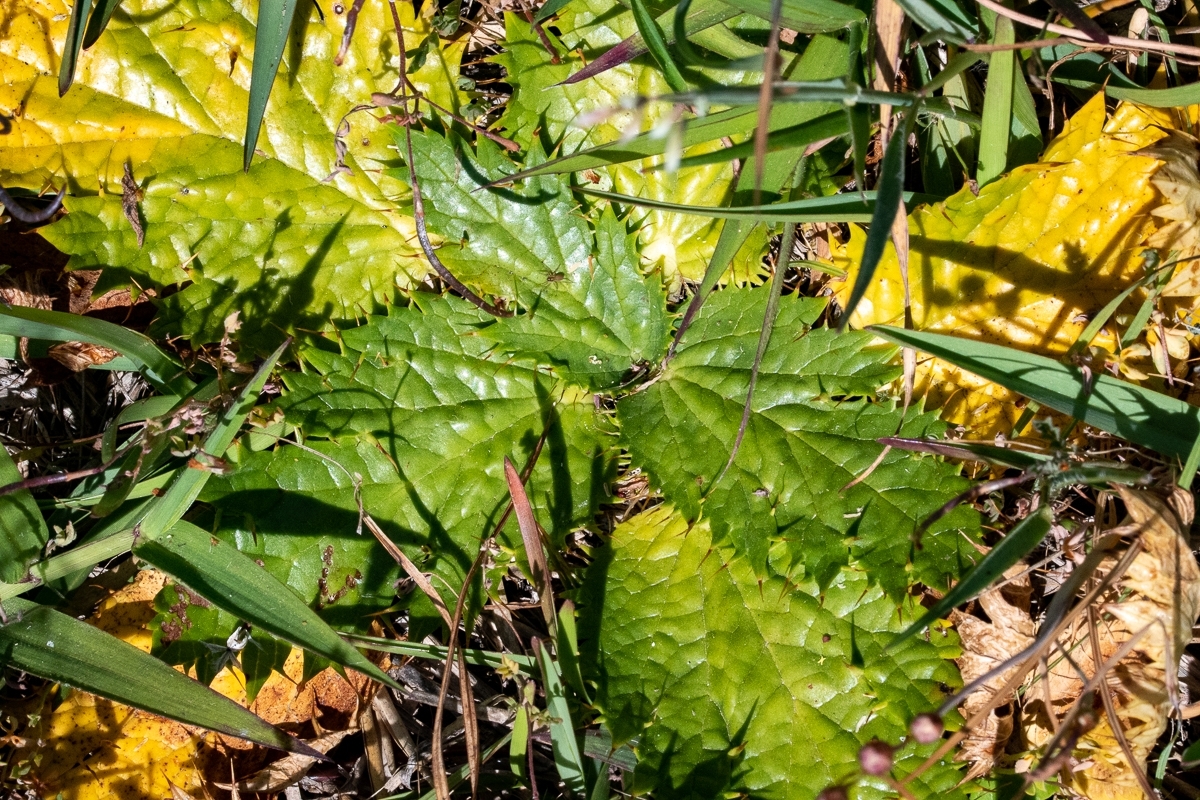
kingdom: Plantae
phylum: Tracheophyta
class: Magnoliopsida
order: Apiales
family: Apiaceae
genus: Arctopus
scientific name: Arctopus echinatus
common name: Platdoring
